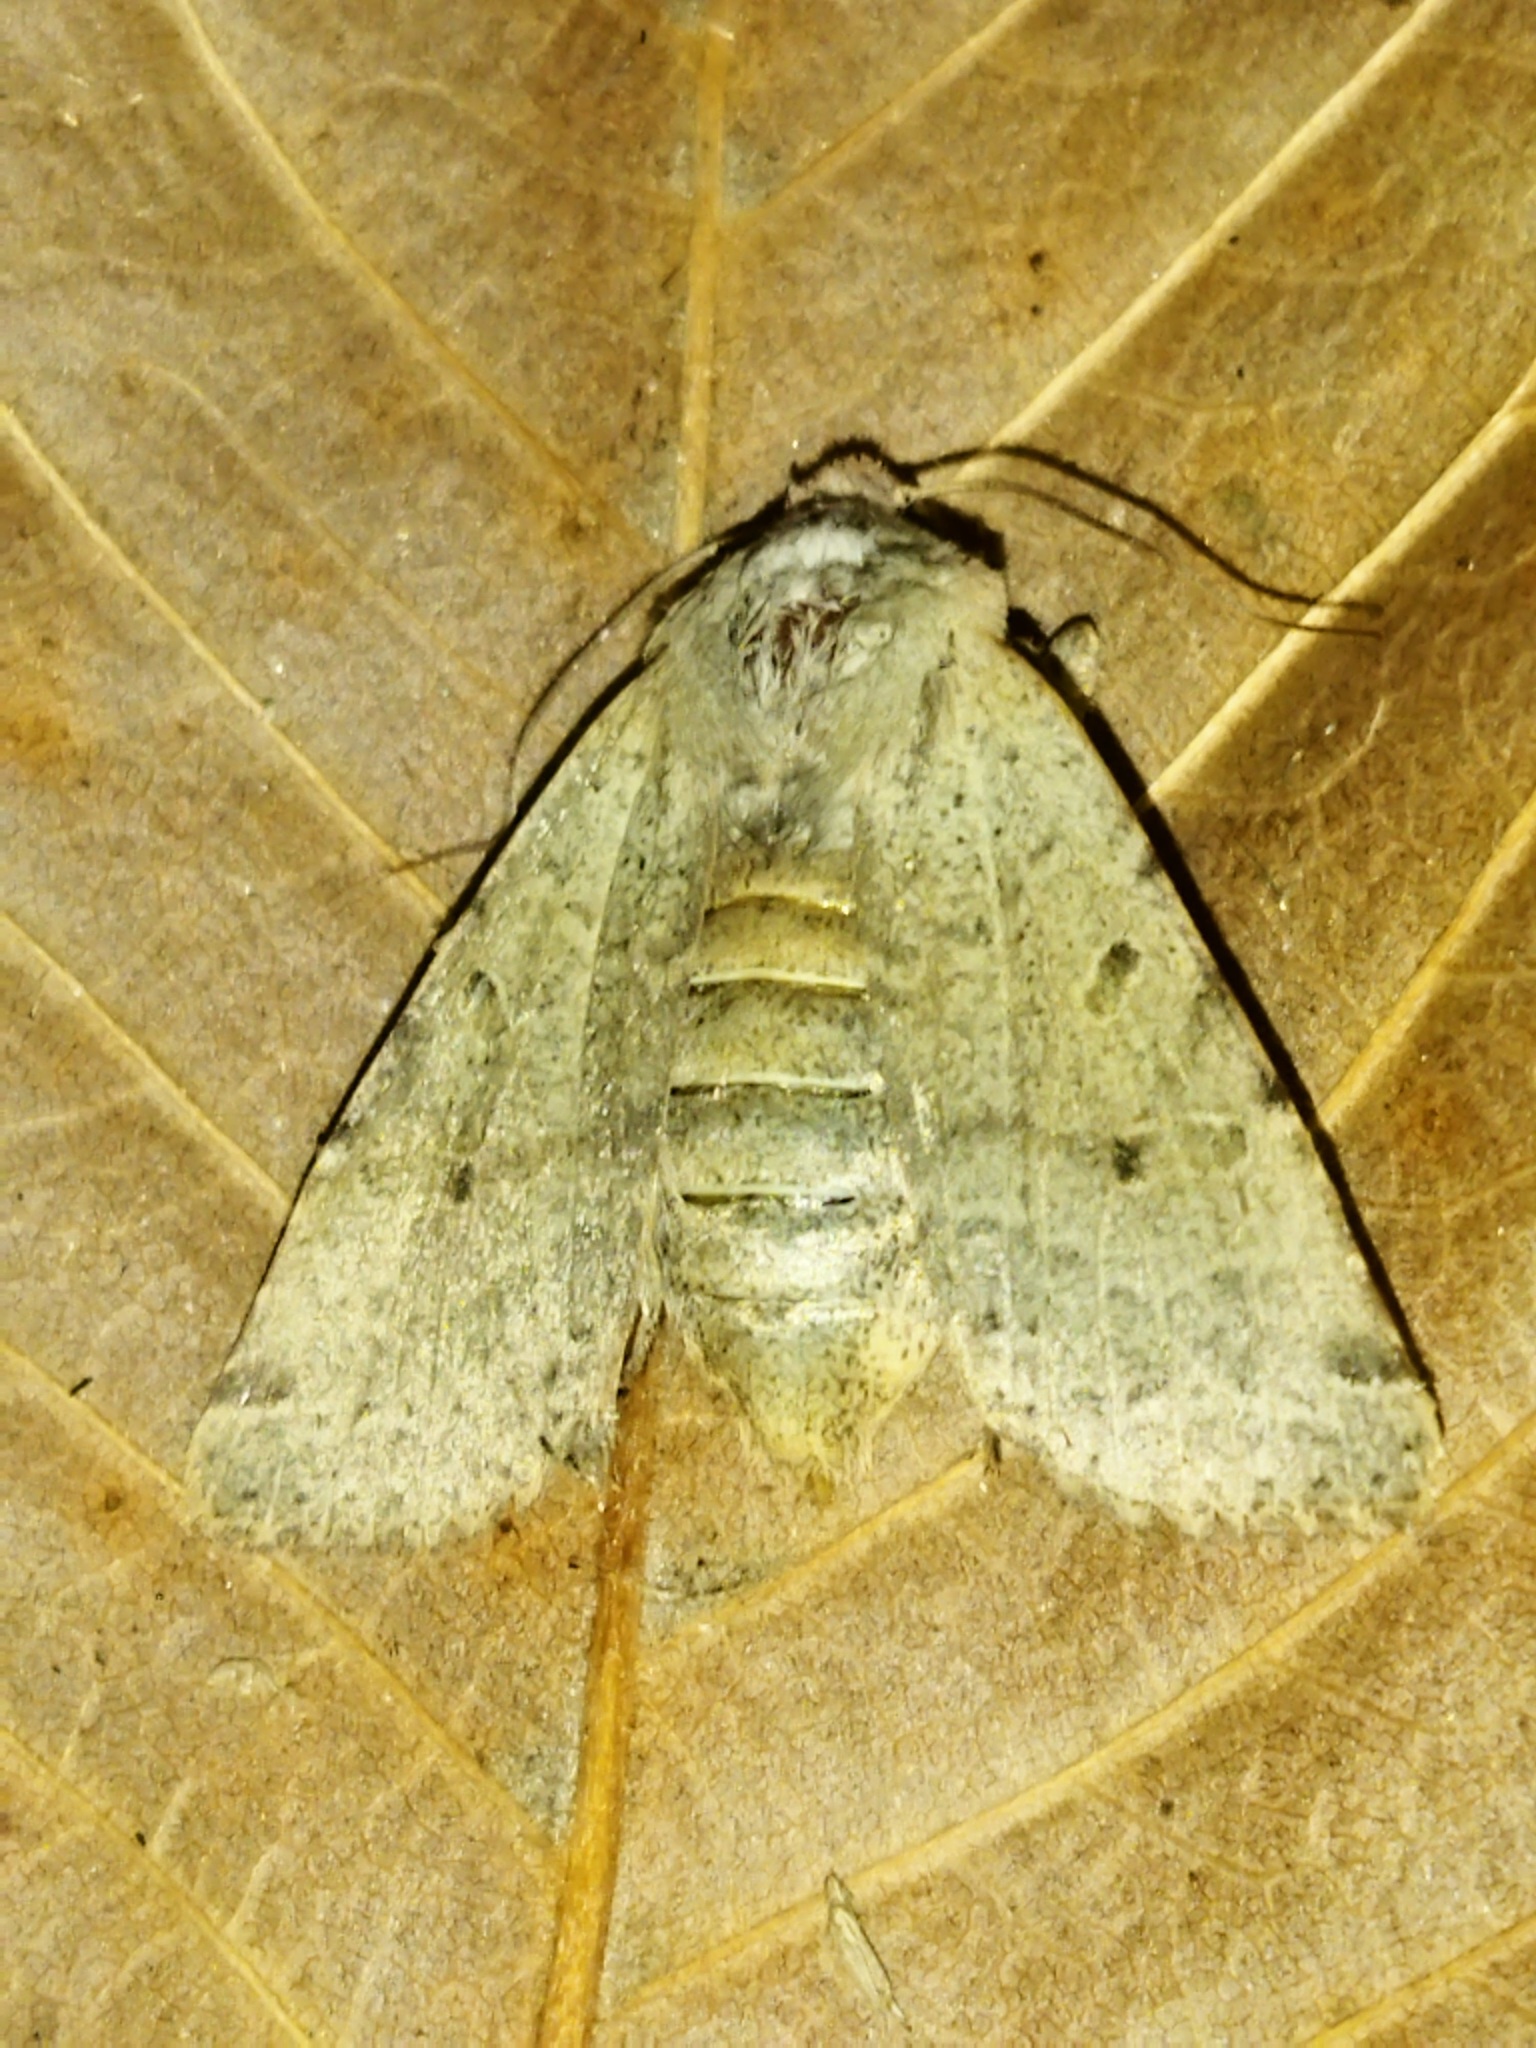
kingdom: Animalia
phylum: Arthropoda
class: Insecta
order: Lepidoptera
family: Noctuidae
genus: Agrochola
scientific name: Agrochola lychnidis
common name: Beaded chestnut
